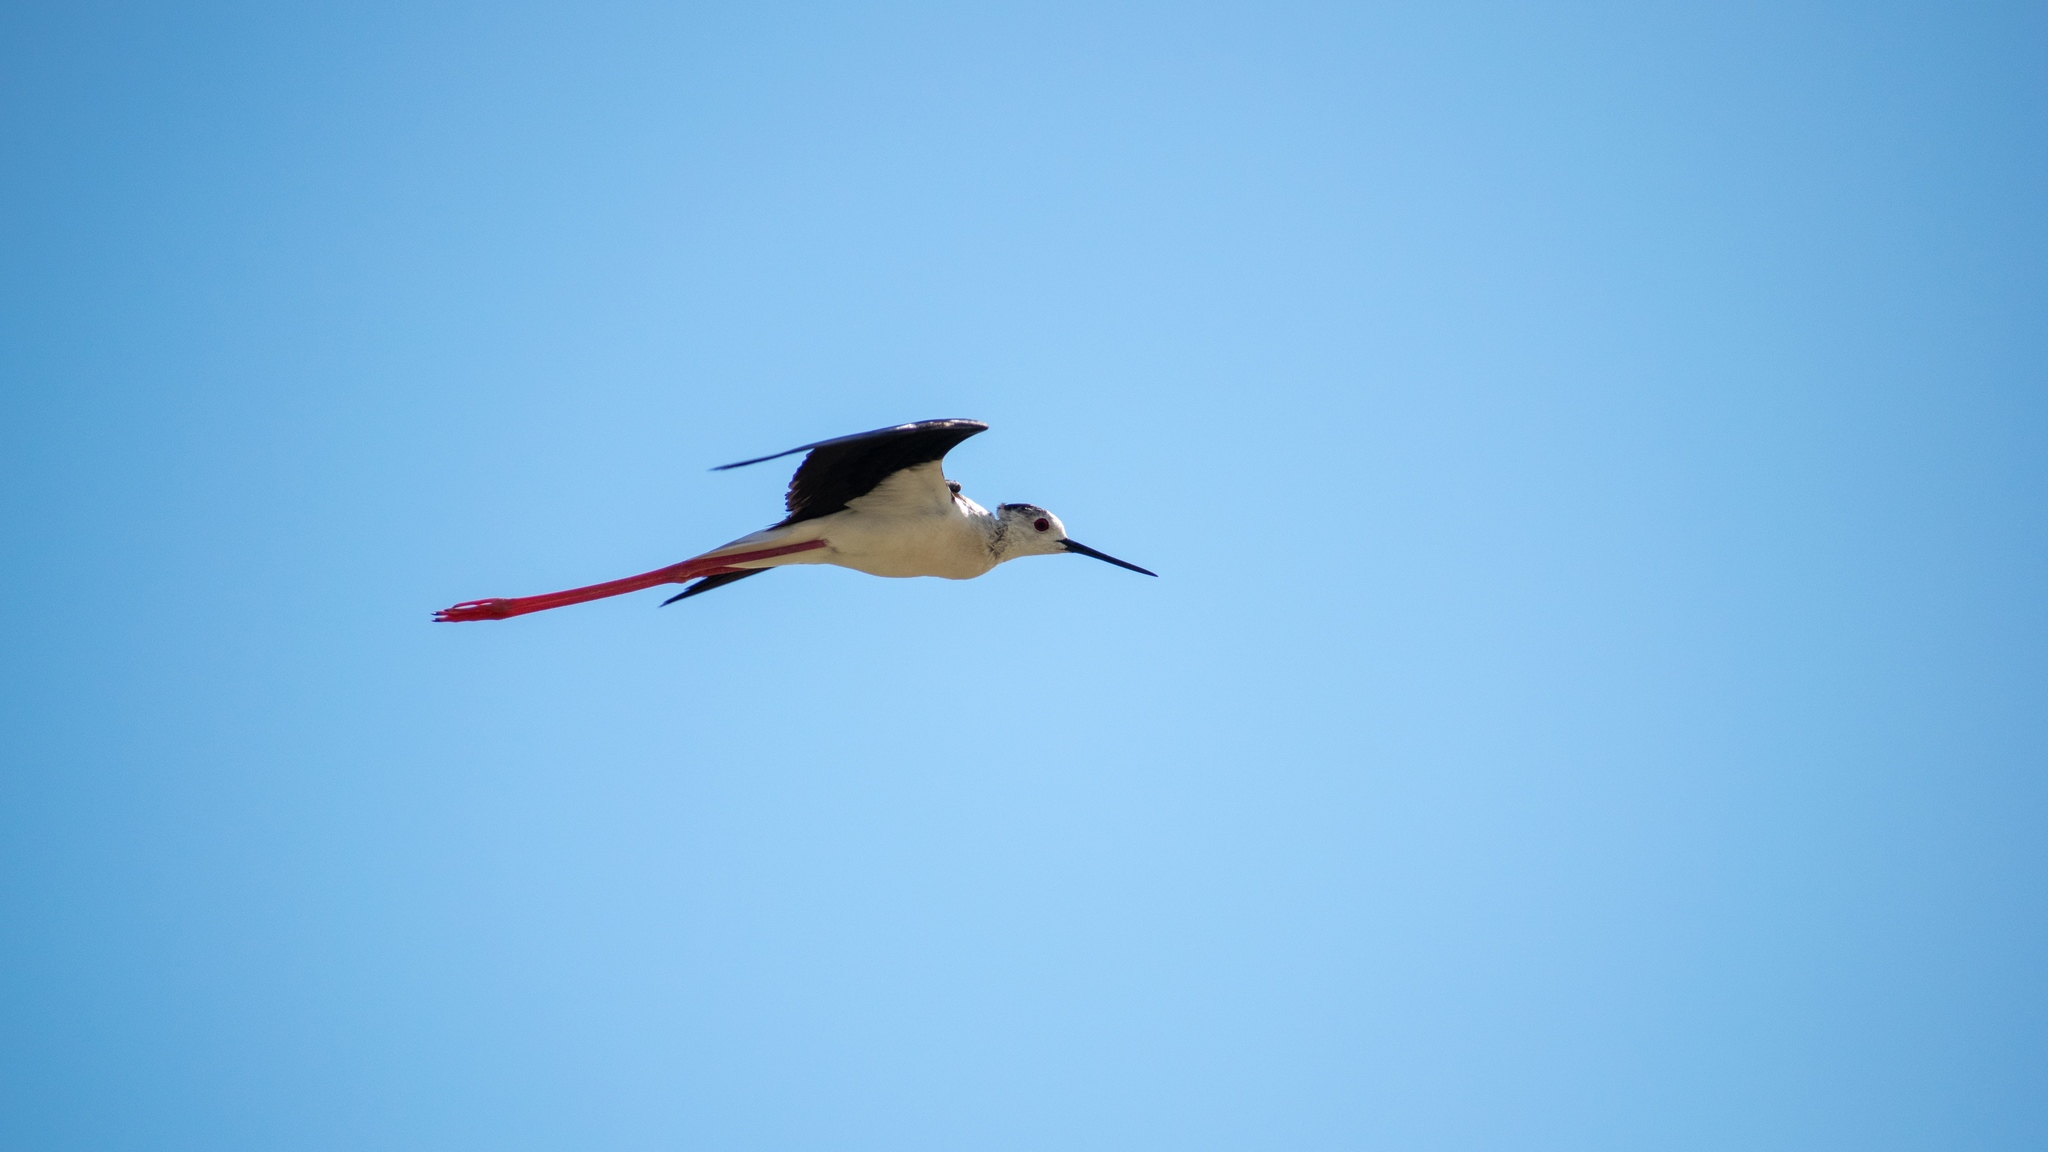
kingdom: Animalia
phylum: Chordata
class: Aves
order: Charadriiformes
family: Recurvirostridae
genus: Himantopus
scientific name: Himantopus himantopus
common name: Black-winged stilt
